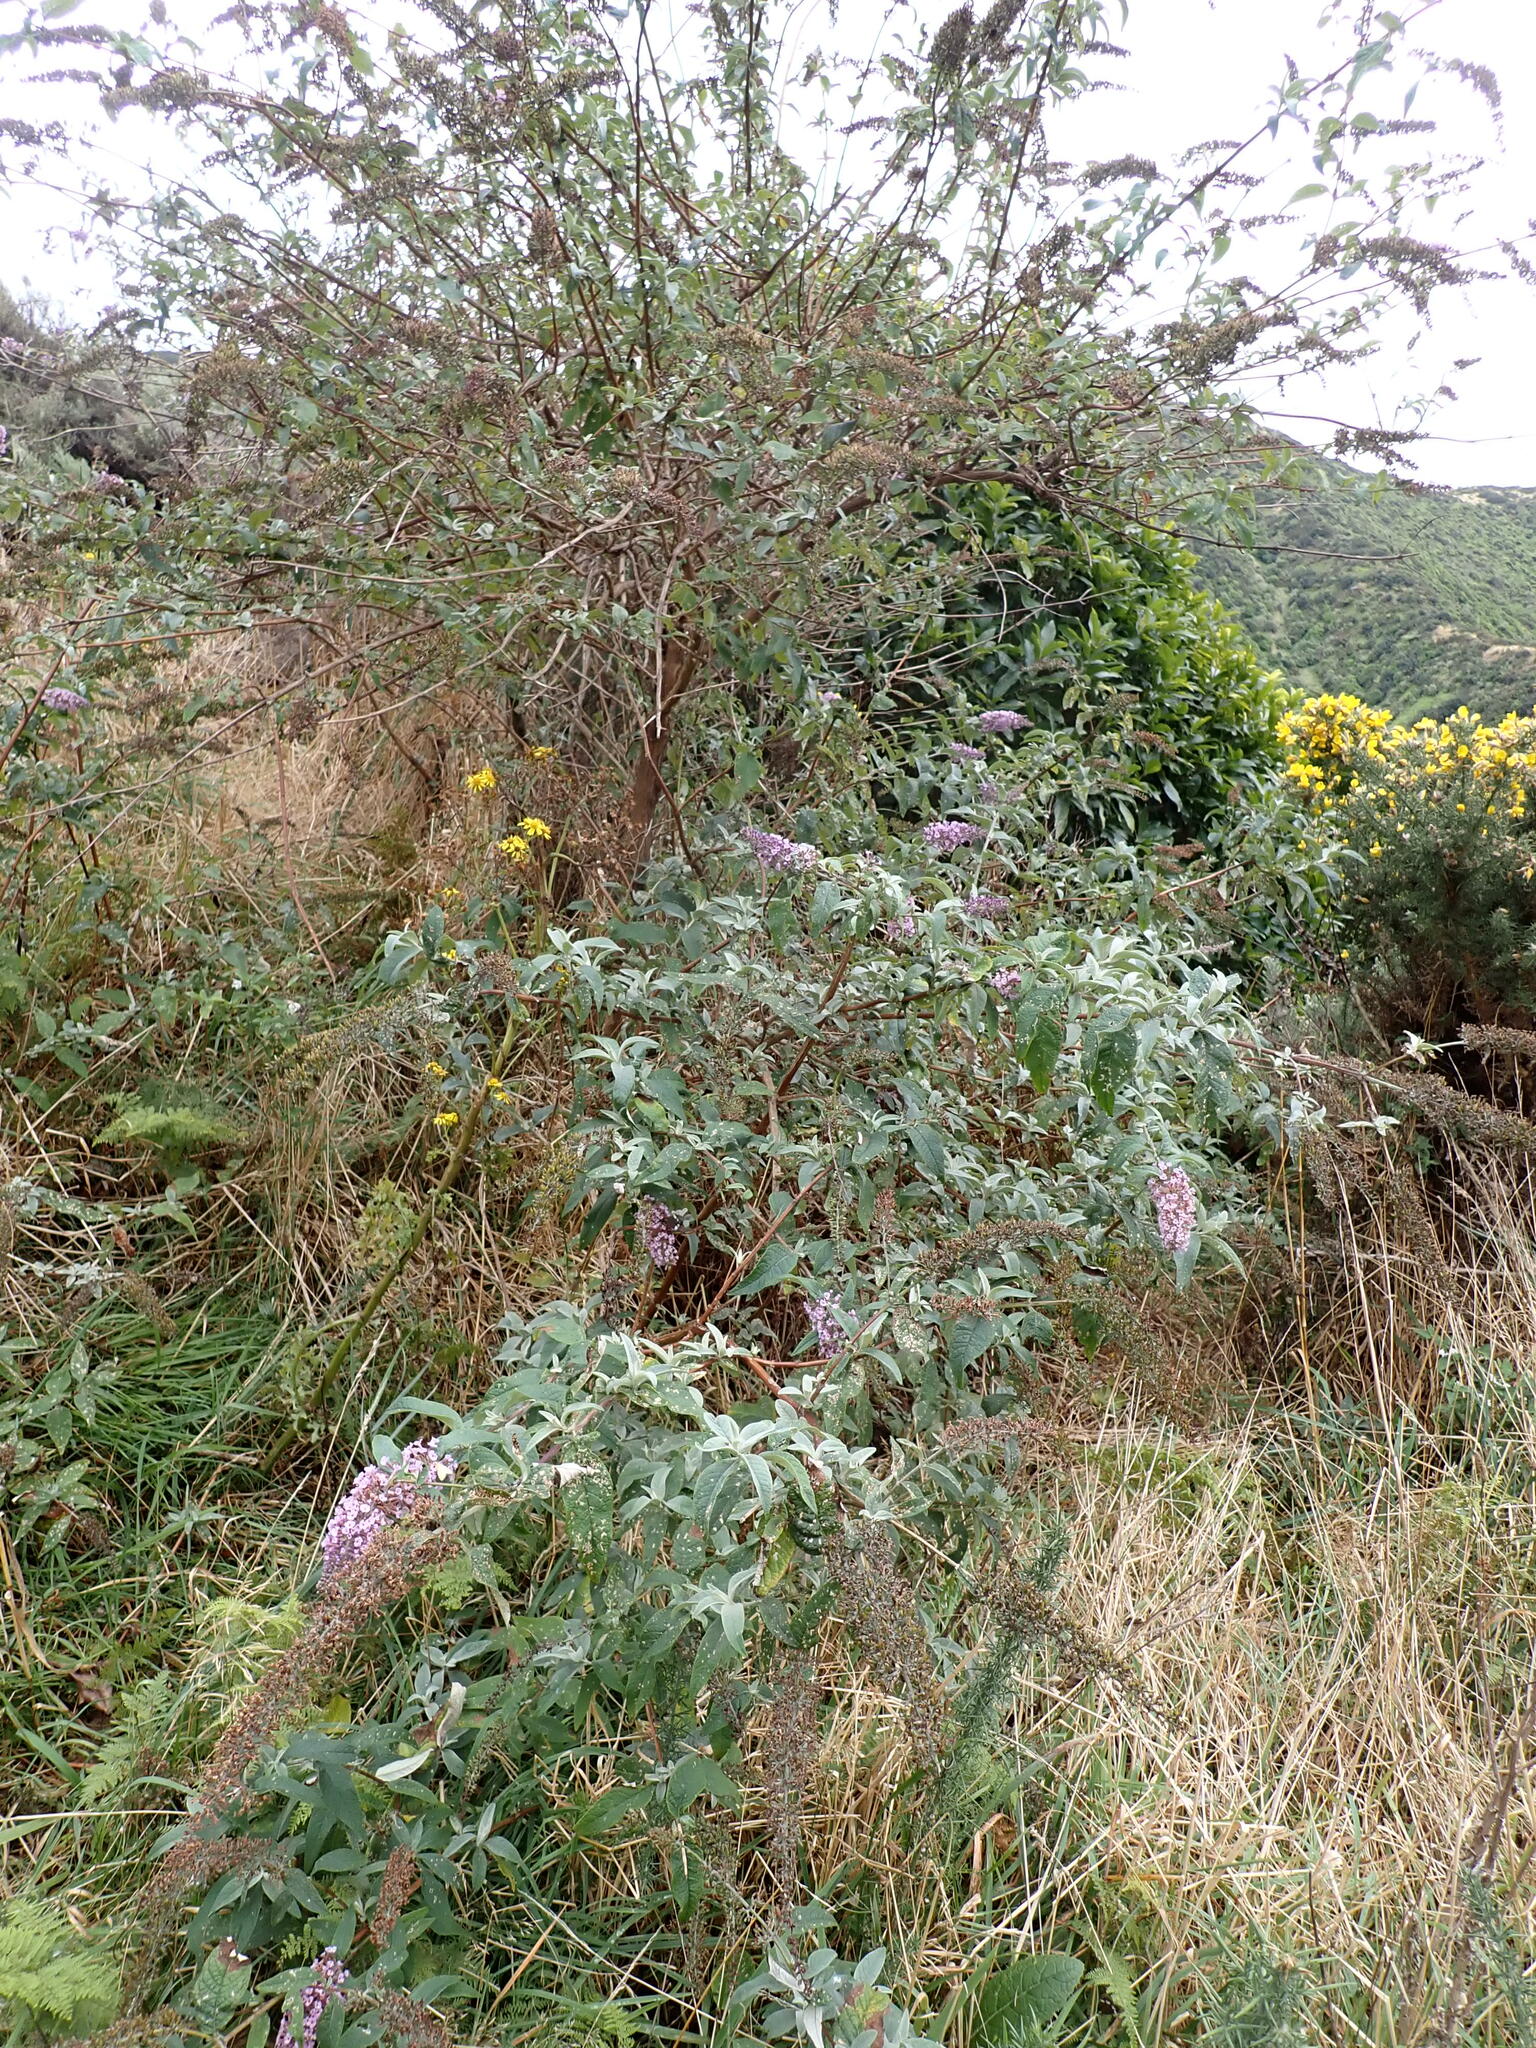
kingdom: Plantae
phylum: Tracheophyta
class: Magnoliopsida
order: Lamiales
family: Scrophulariaceae
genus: Buddleja
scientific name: Buddleja davidii
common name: Butterfly-bush
